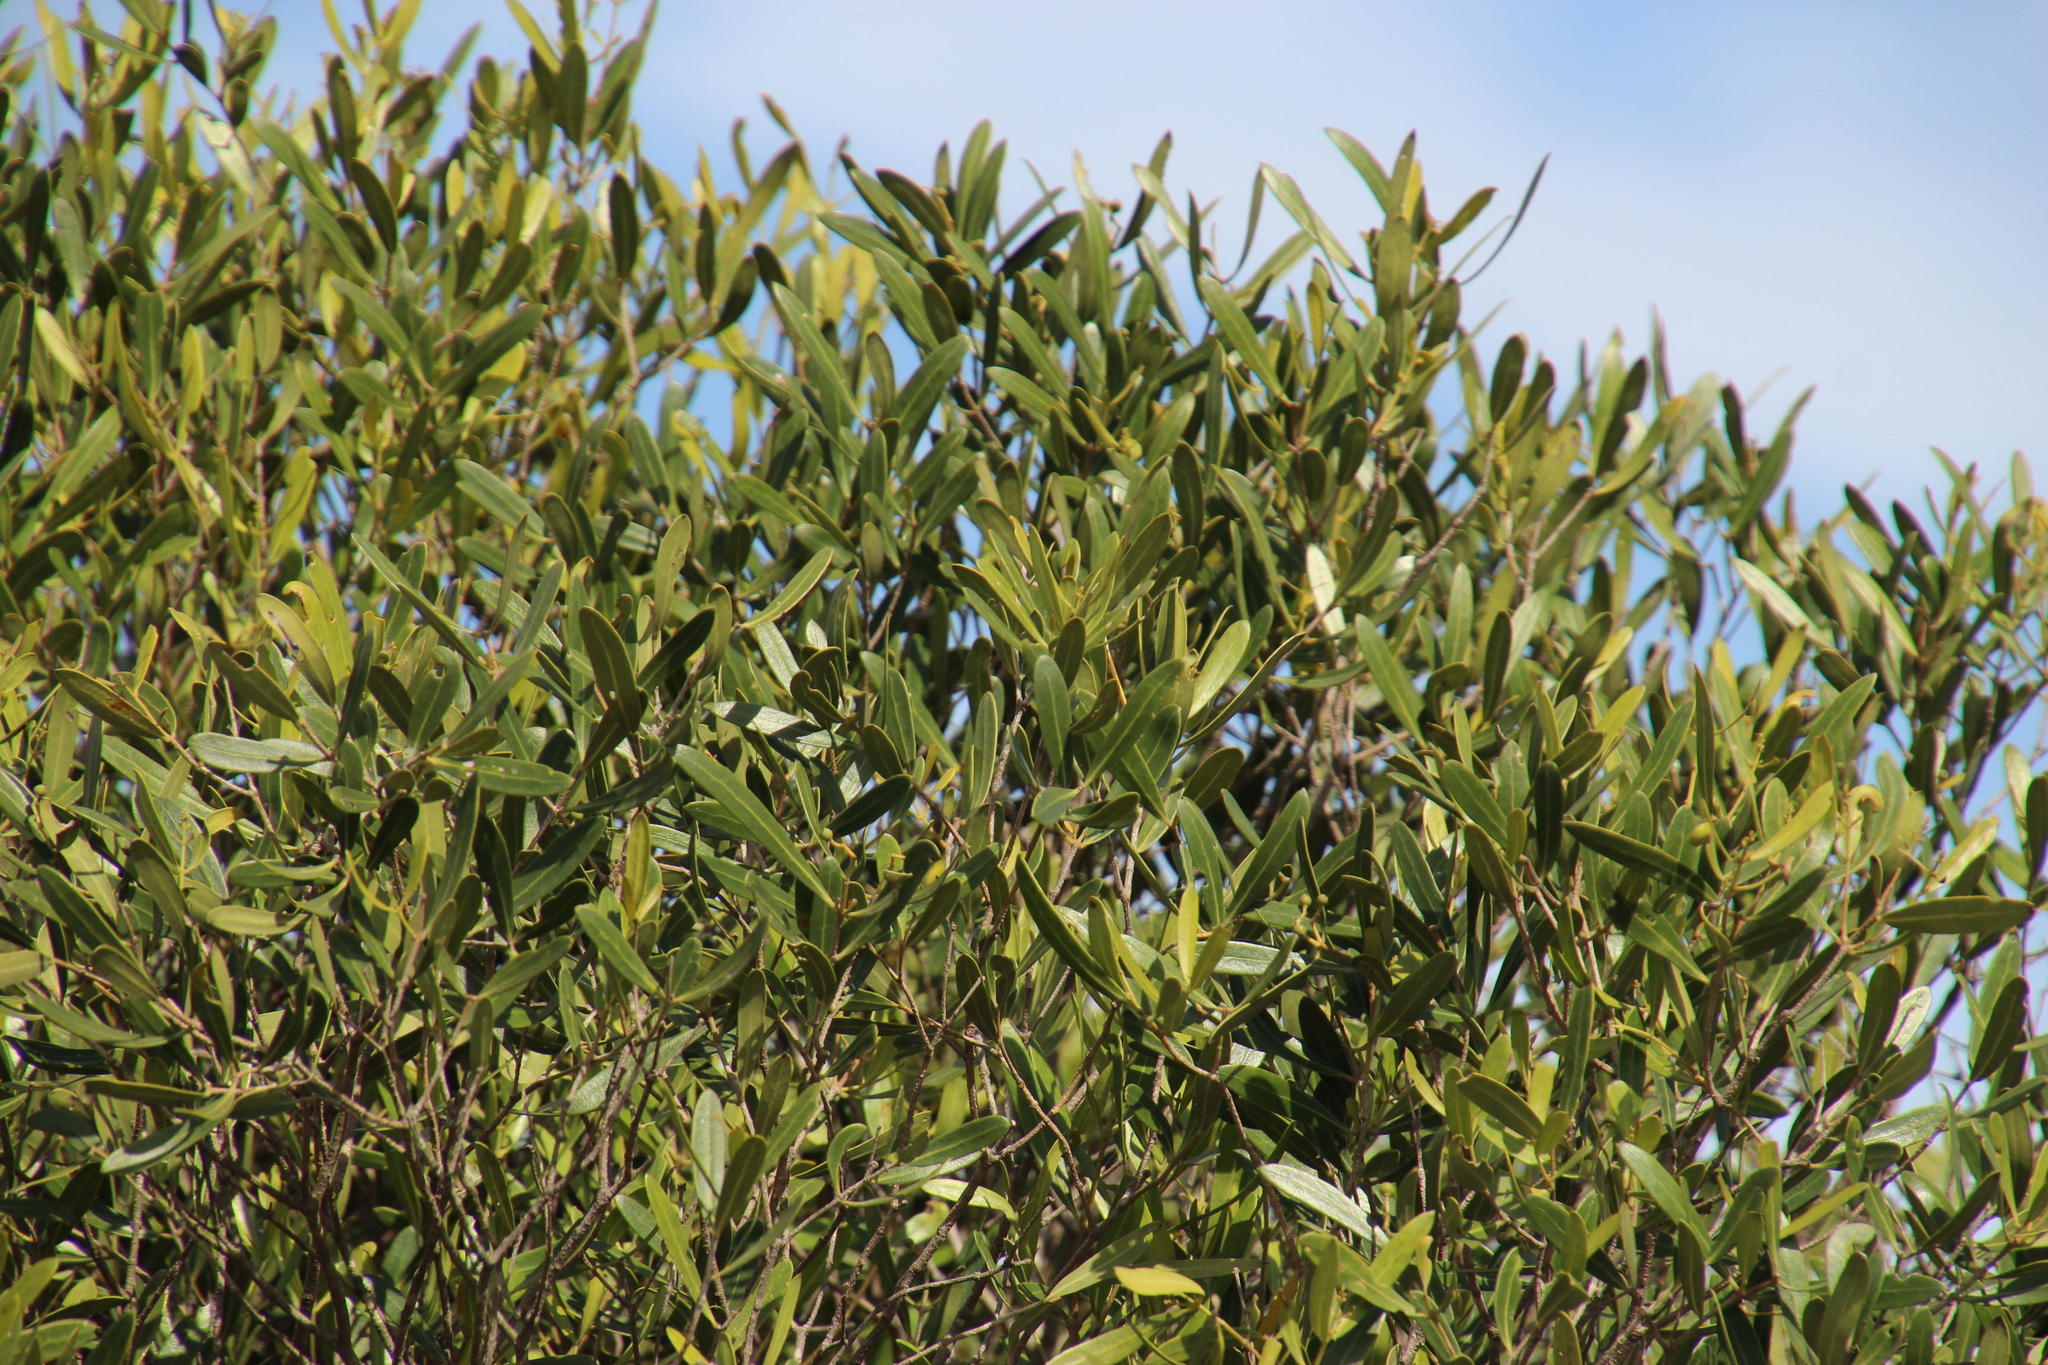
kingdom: Plantae
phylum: Tracheophyta
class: Magnoliopsida
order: Lamiales
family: Oleaceae
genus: Olea
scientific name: Olea europaea
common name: Olive
